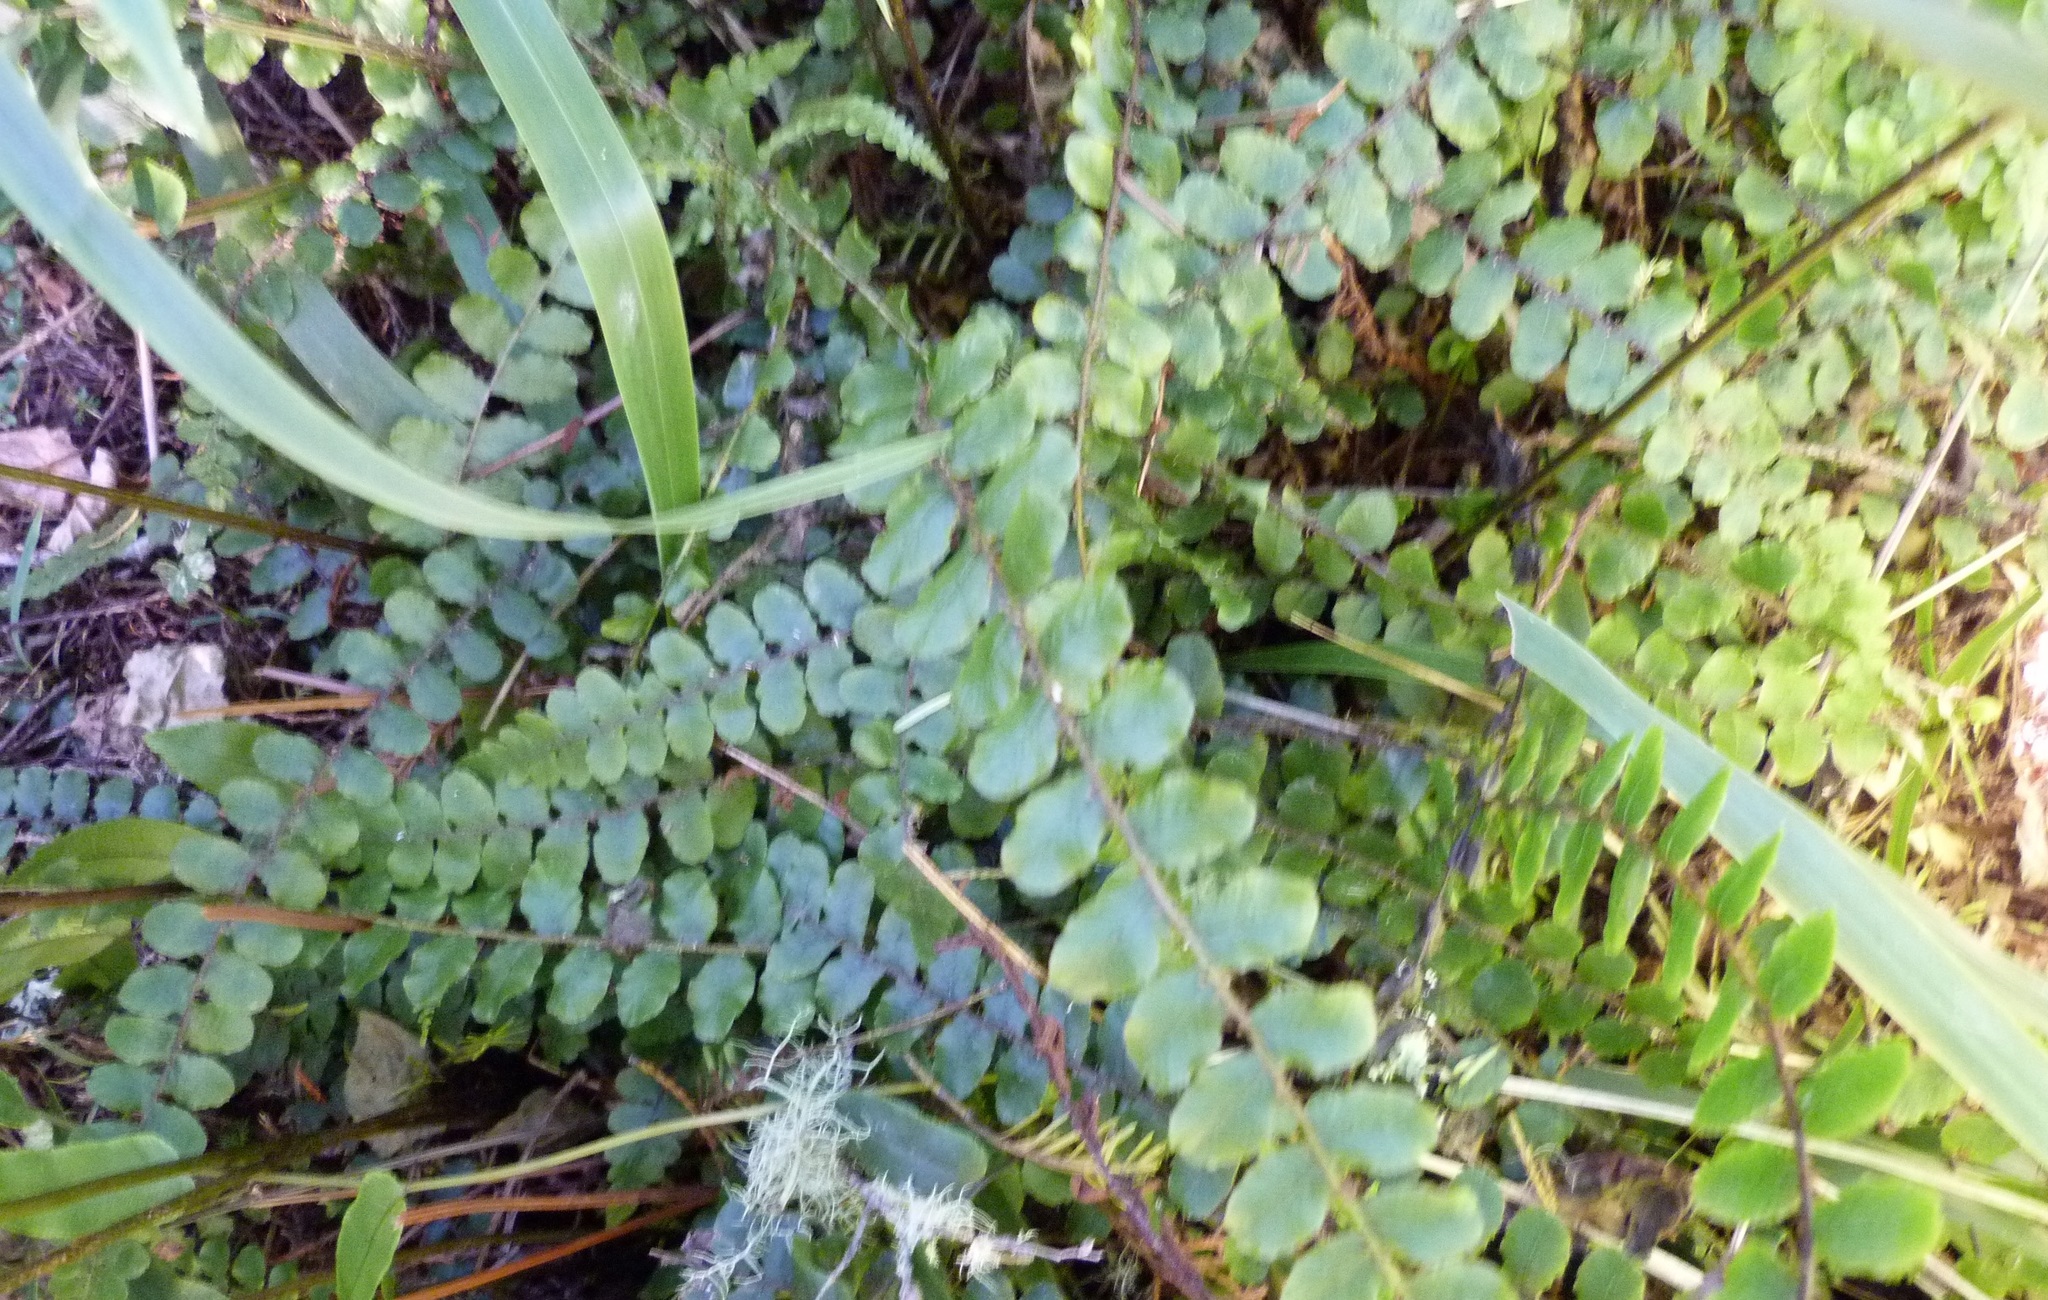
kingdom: Plantae
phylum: Tracheophyta
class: Polypodiopsida
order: Polypodiales
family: Blechnaceae
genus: Cranfillia
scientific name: Cranfillia fluviatilis
